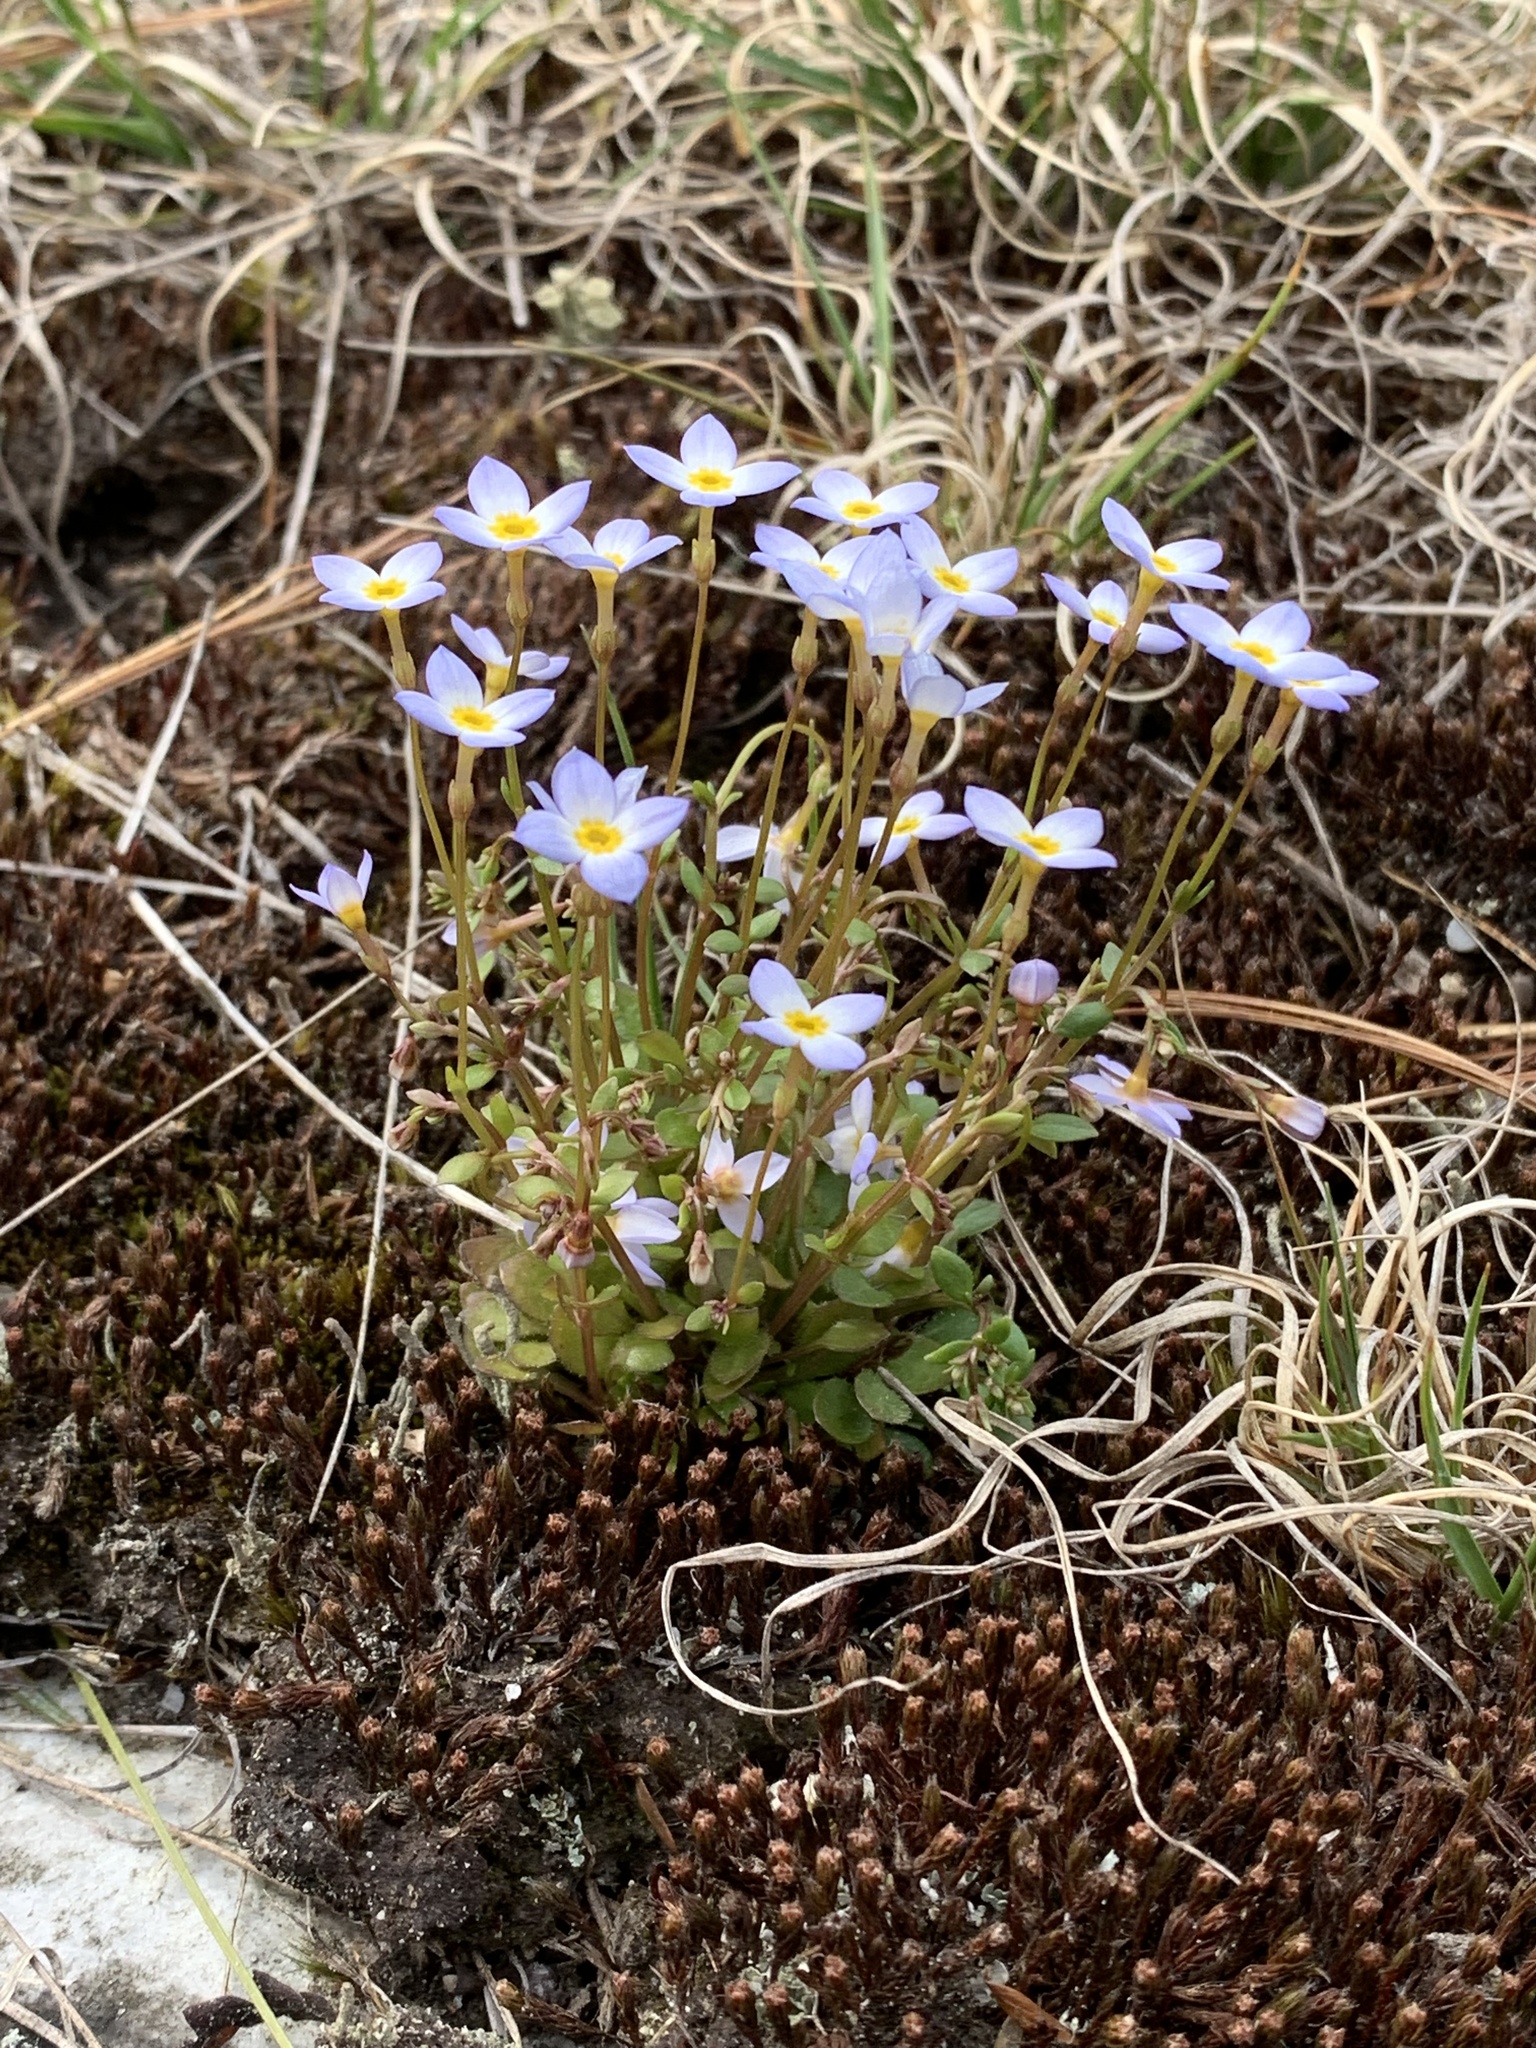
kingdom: Plantae
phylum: Tracheophyta
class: Magnoliopsida
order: Gentianales
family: Rubiaceae
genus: Houstonia
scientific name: Houstonia caerulea
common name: Bluets
